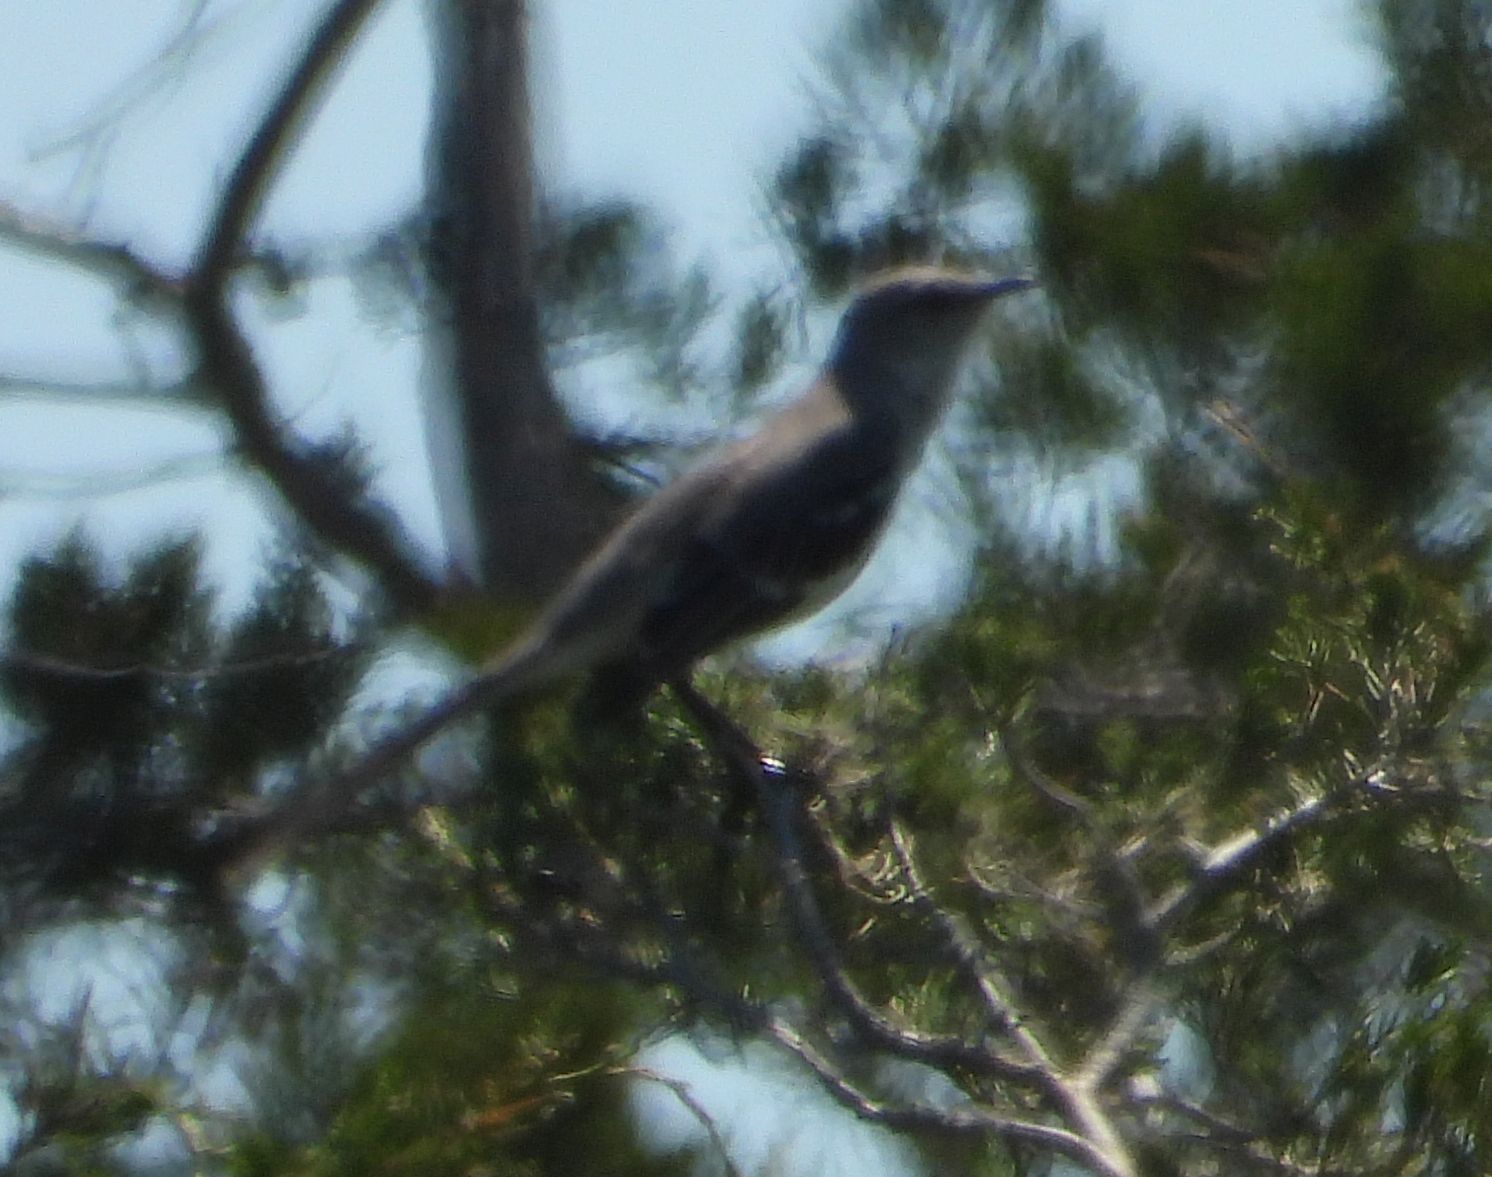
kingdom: Animalia
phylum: Chordata
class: Aves
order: Passeriformes
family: Mimidae
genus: Mimus
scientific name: Mimus polyglottos
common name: Northern mockingbird
